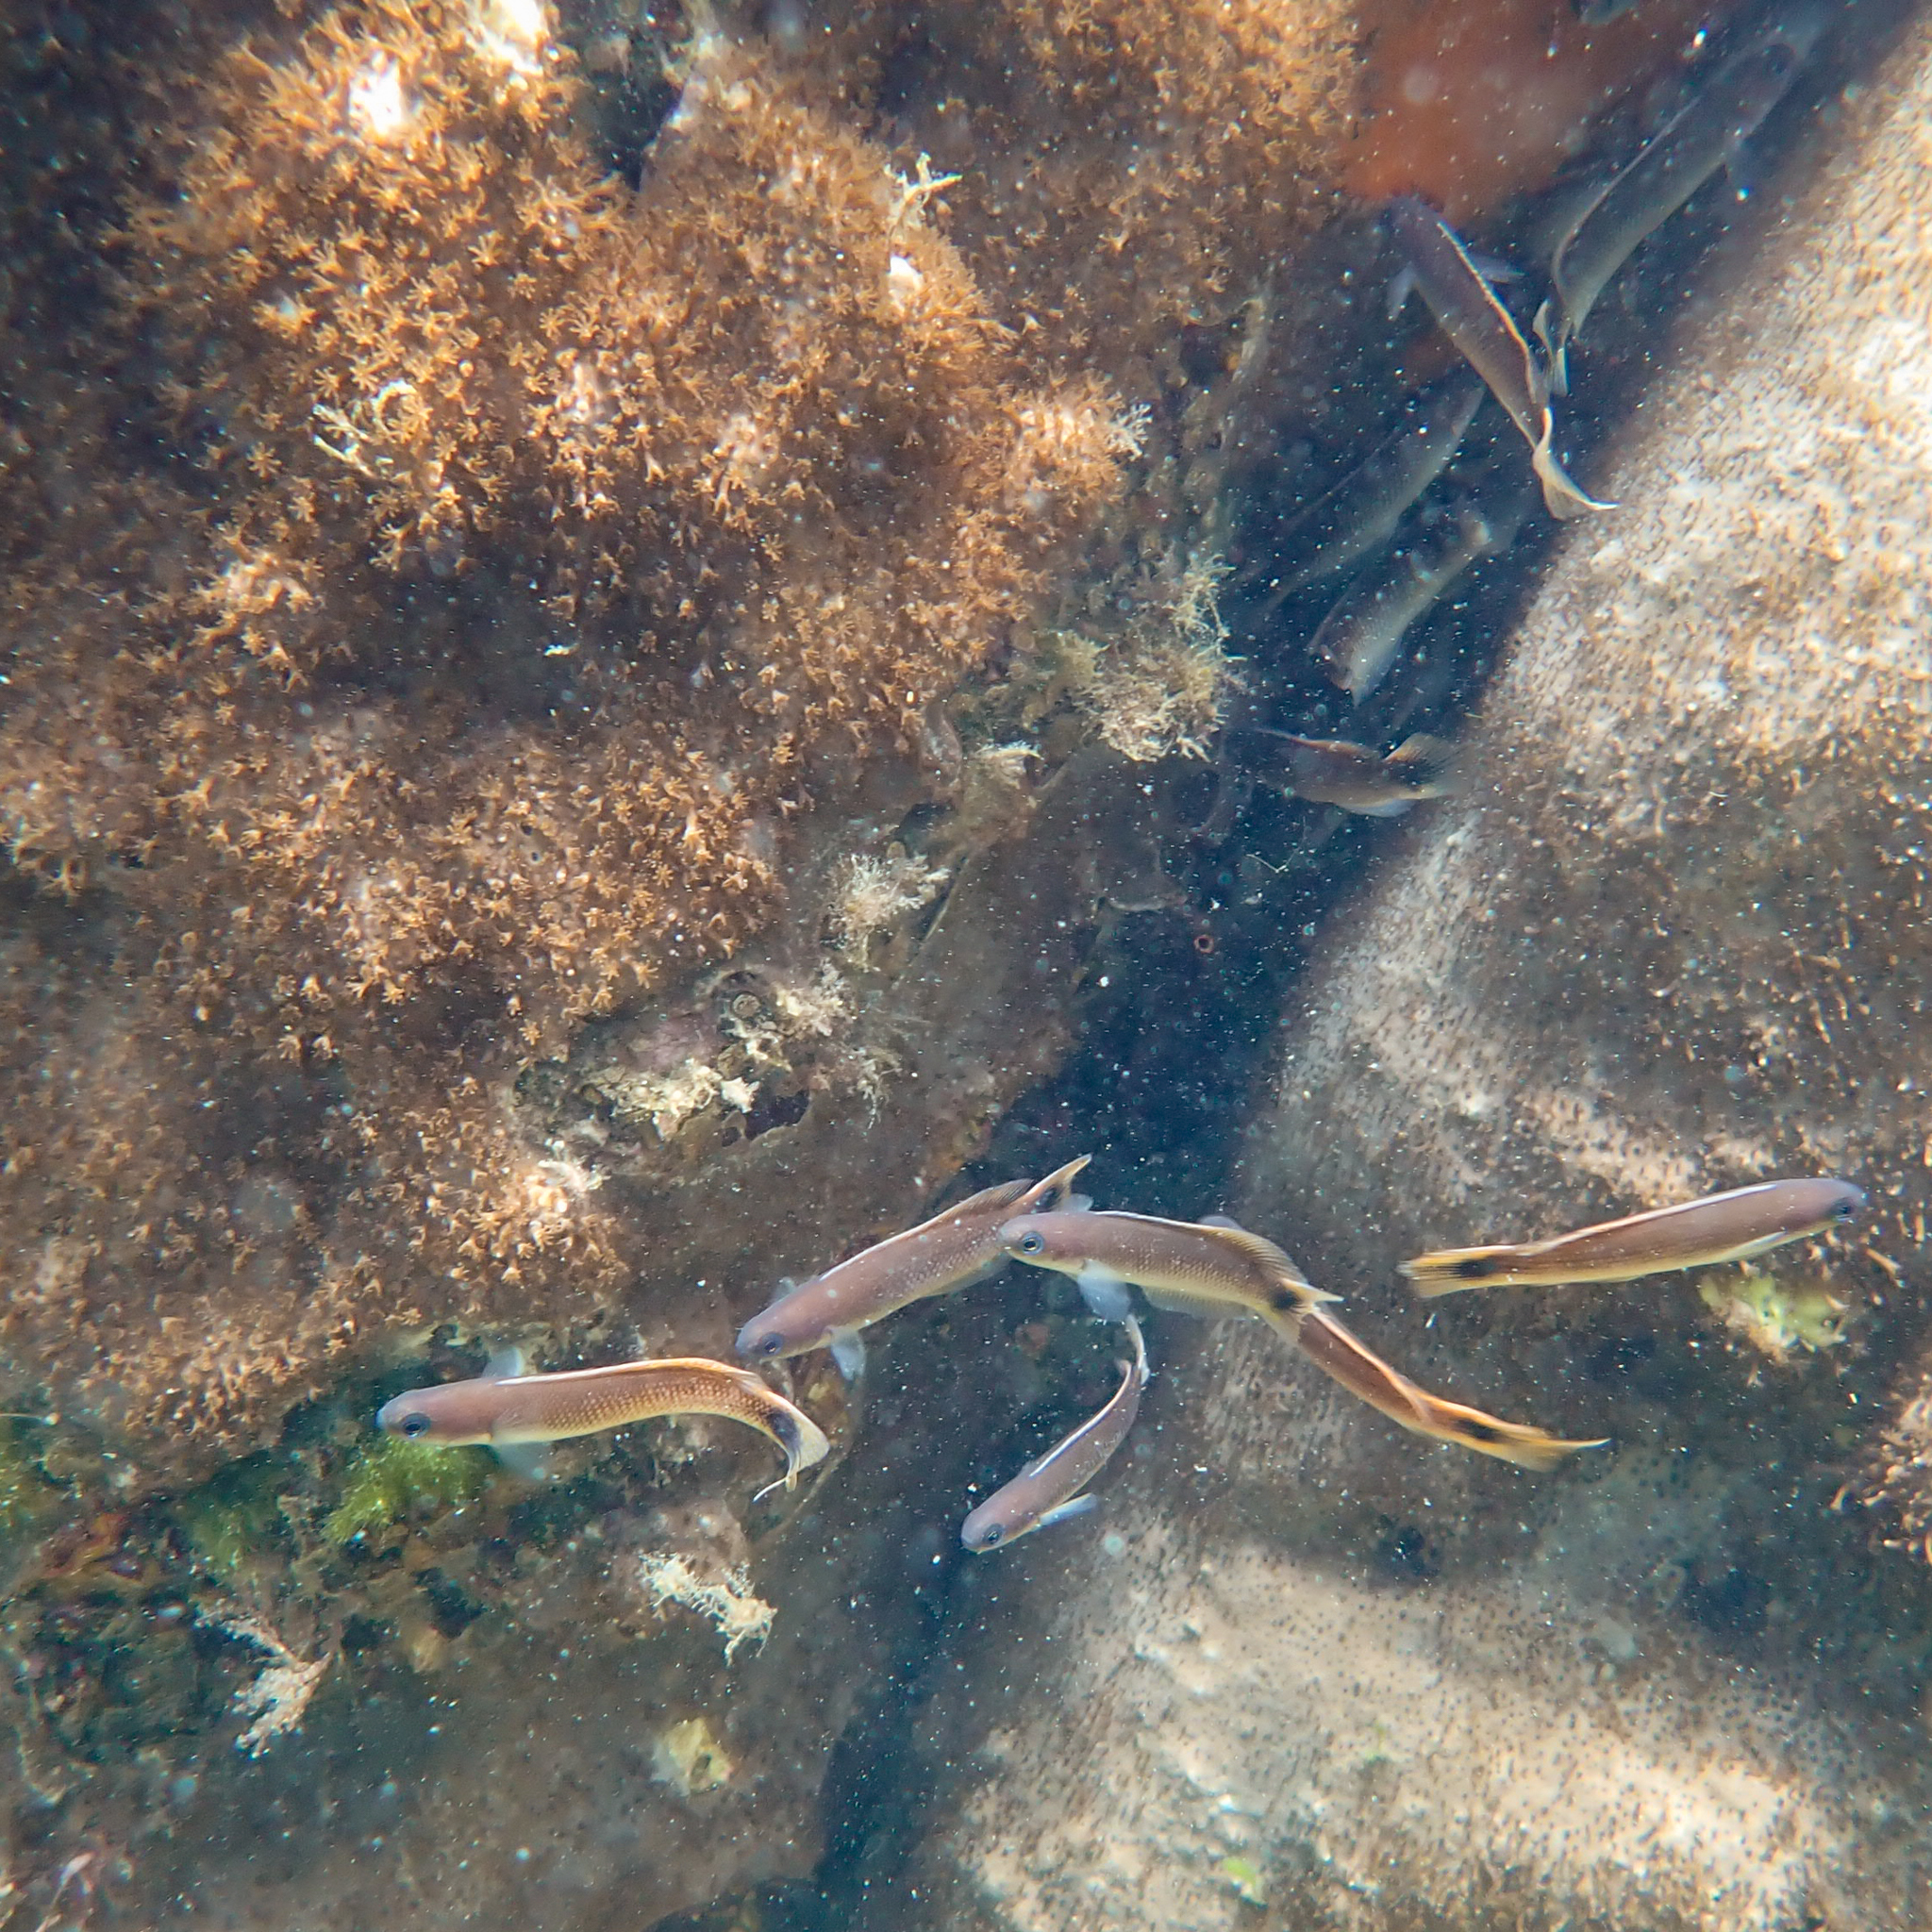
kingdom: Animalia
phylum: Chordata
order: Perciformes
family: Plesiopidae
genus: Trachinops
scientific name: Trachinops caudimaculatus
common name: Blotched-tailed trachinops
